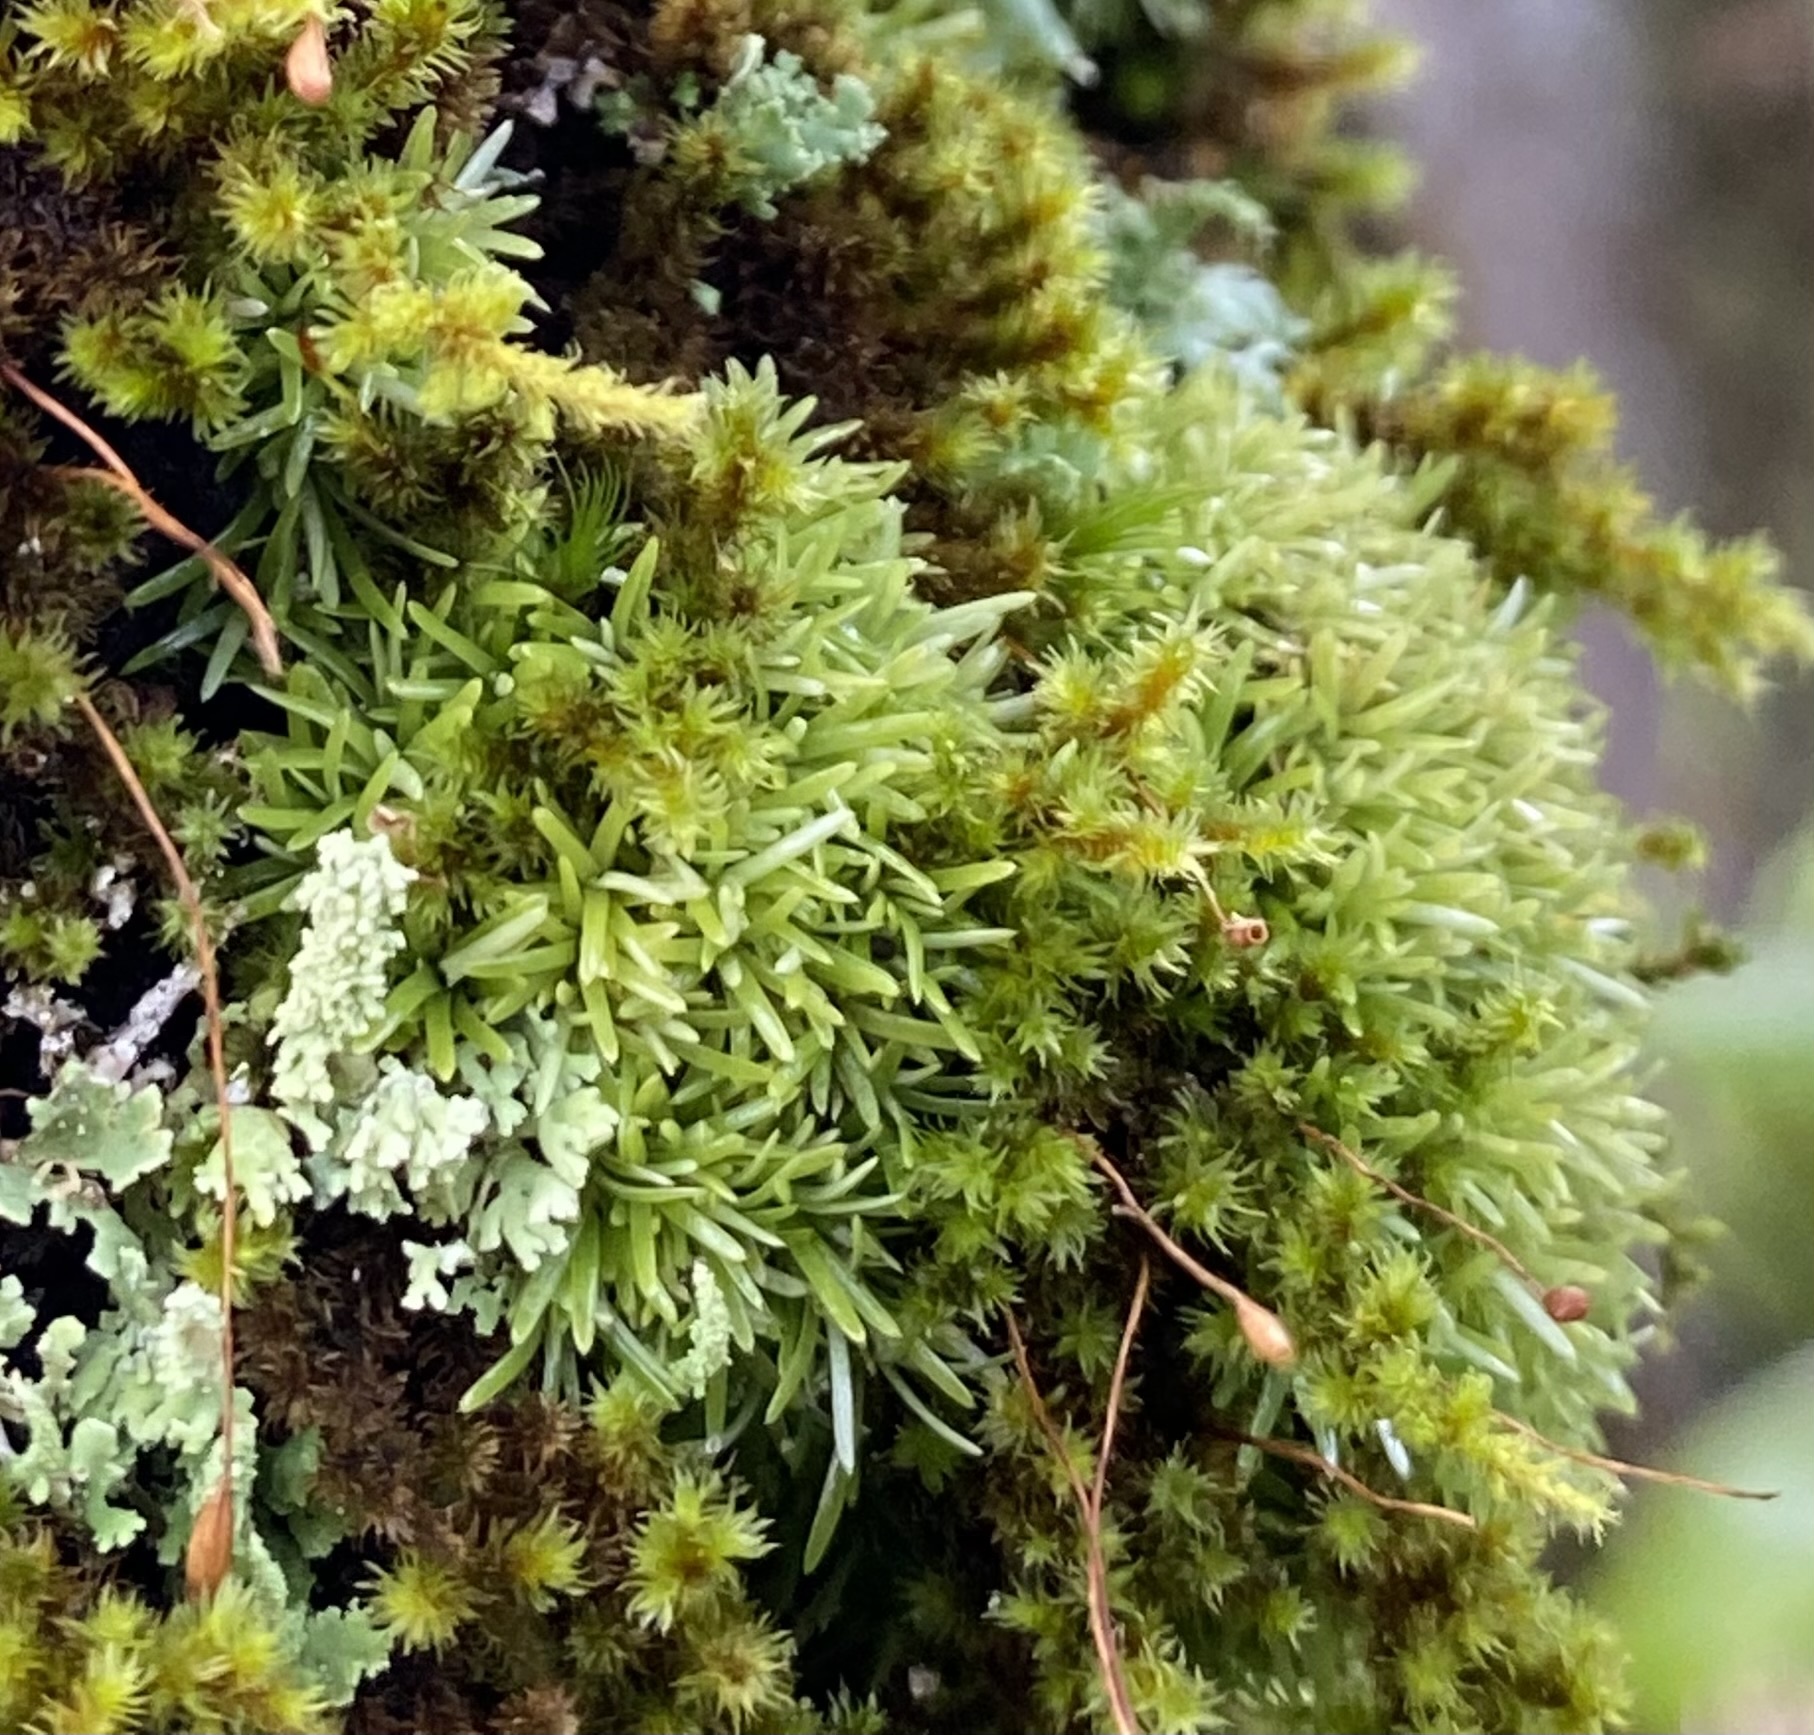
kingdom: Plantae
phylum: Bryophyta
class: Bryopsida
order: Dicranales
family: Octoblepharaceae
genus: Octoblepharum
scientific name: Octoblepharum albidum
